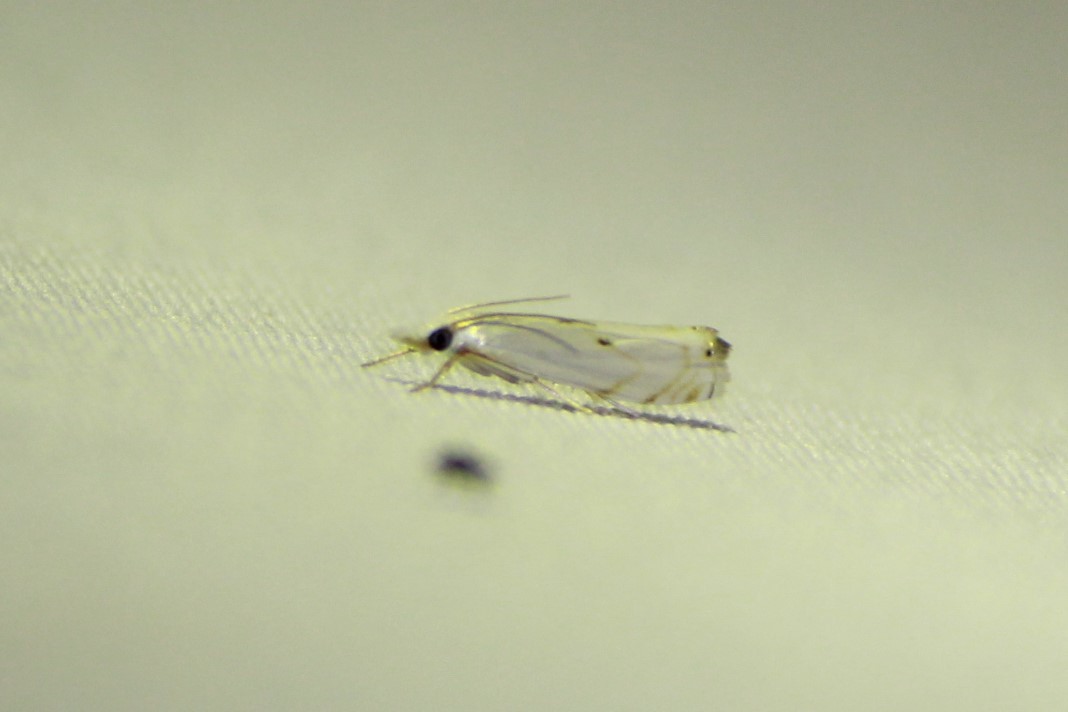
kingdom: Animalia
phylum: Arthropoda
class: Insecta
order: Lepidoptera
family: Crambidae
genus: Microcrambus
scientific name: Microcrambus biguttellus
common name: Gold-stripe grass-veneer moth
